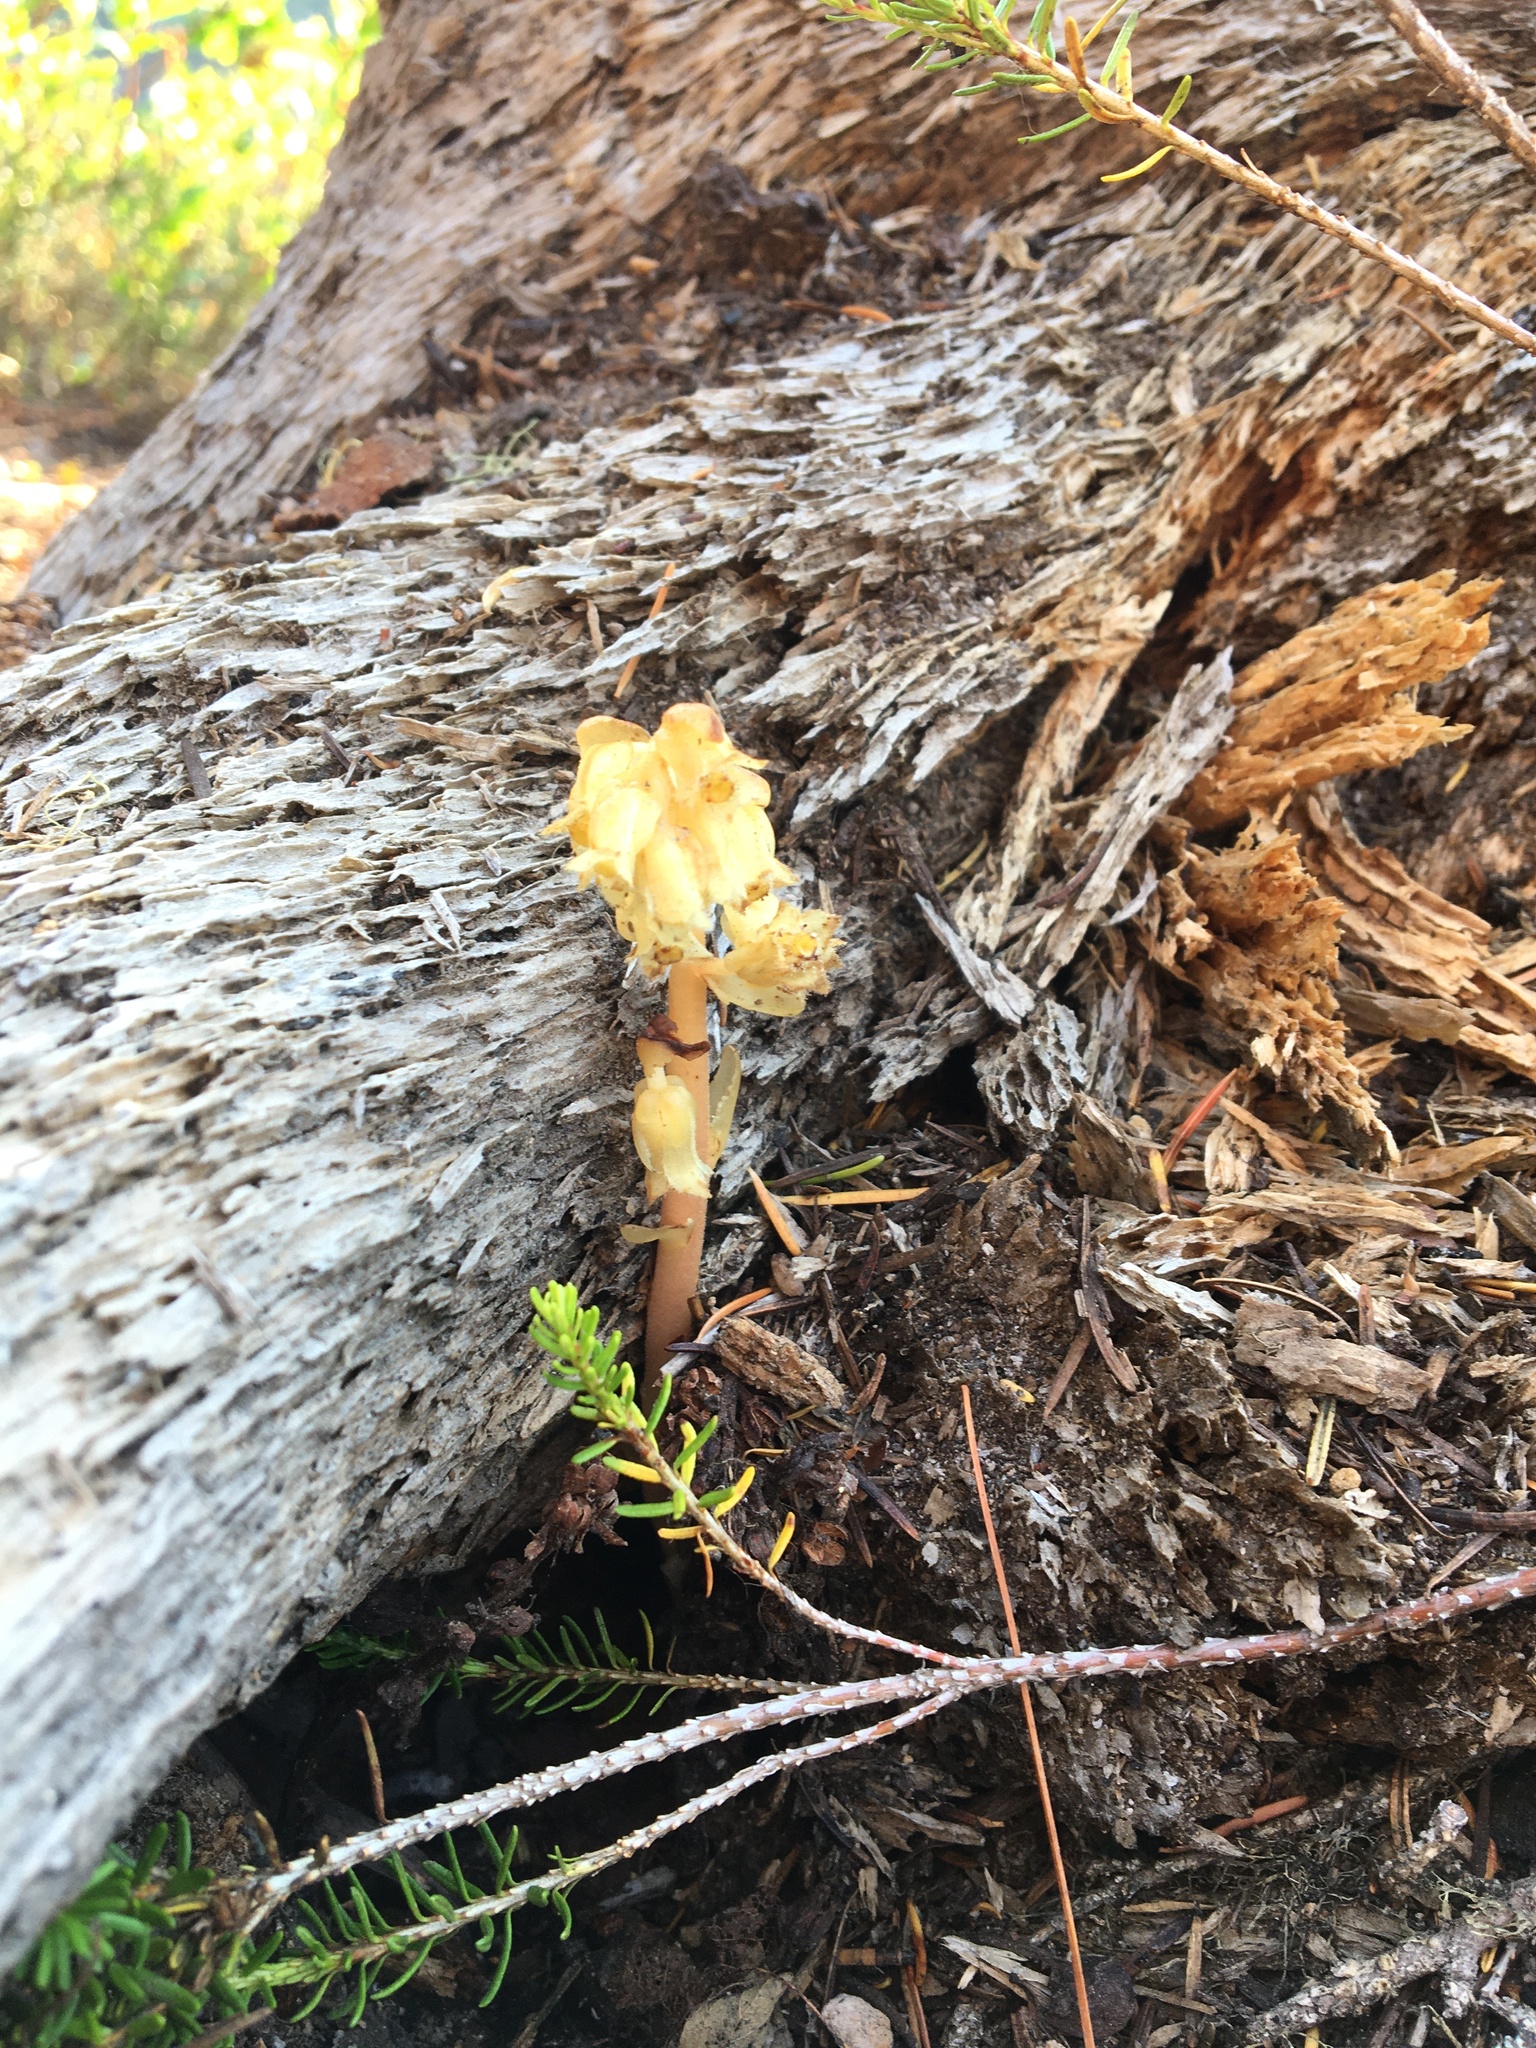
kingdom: Plantae
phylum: Tracheophyta
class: Magnoliopsida
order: Ericales
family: Ericaceae
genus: Hypopitys
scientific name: Hypopitys monotropa
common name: Yellow bird's-nest
